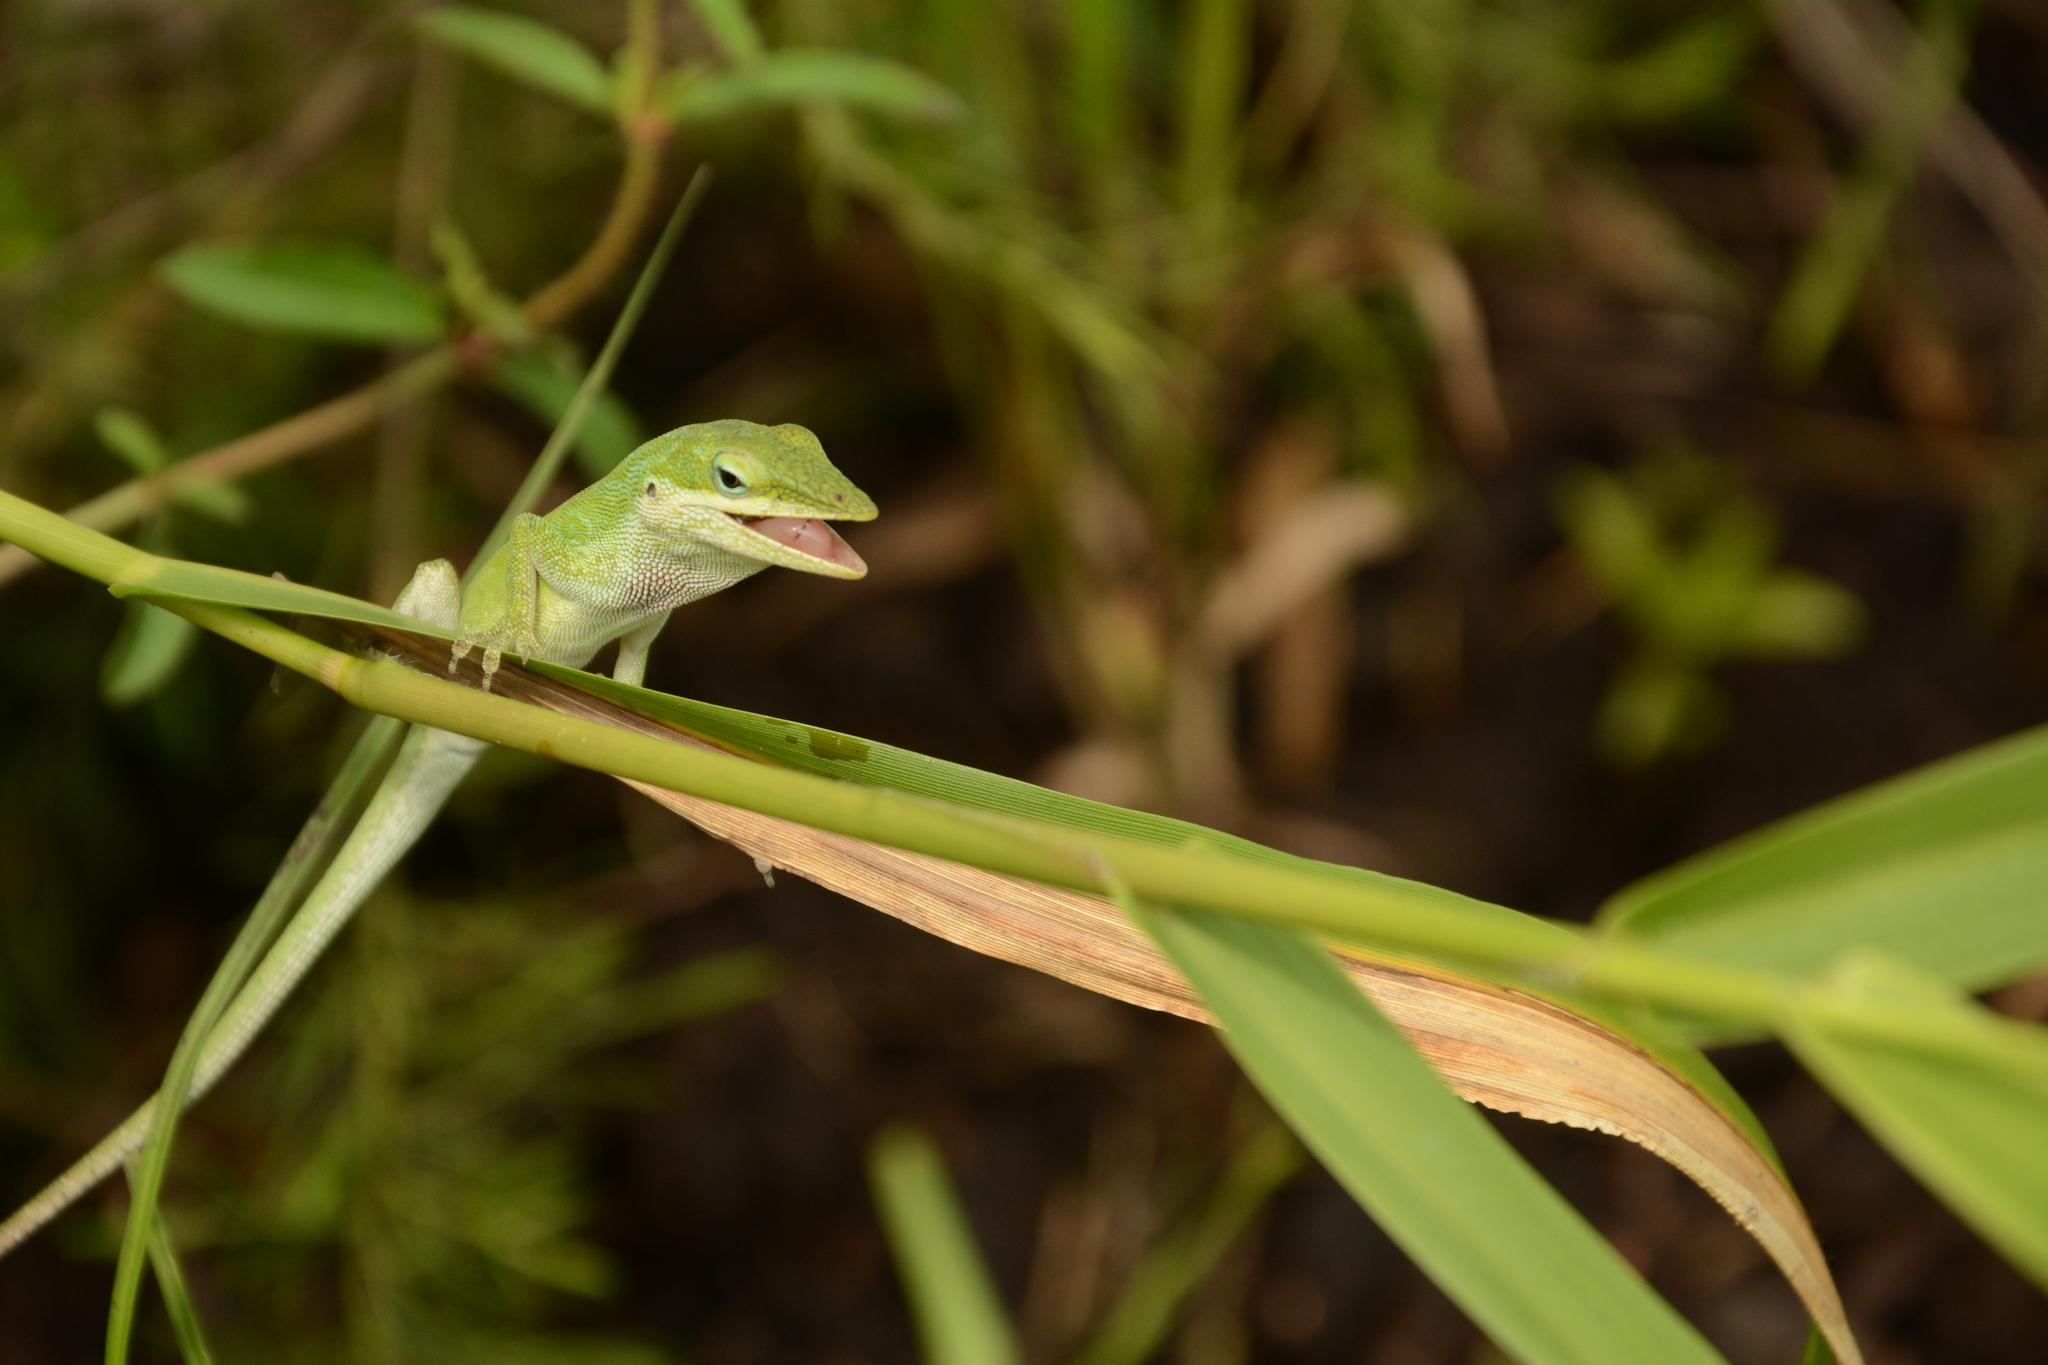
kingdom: Animalia
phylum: Chordata
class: Squamata
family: Dactyloidae
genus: Anolis
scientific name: Anolis carolinensis
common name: Green anole
